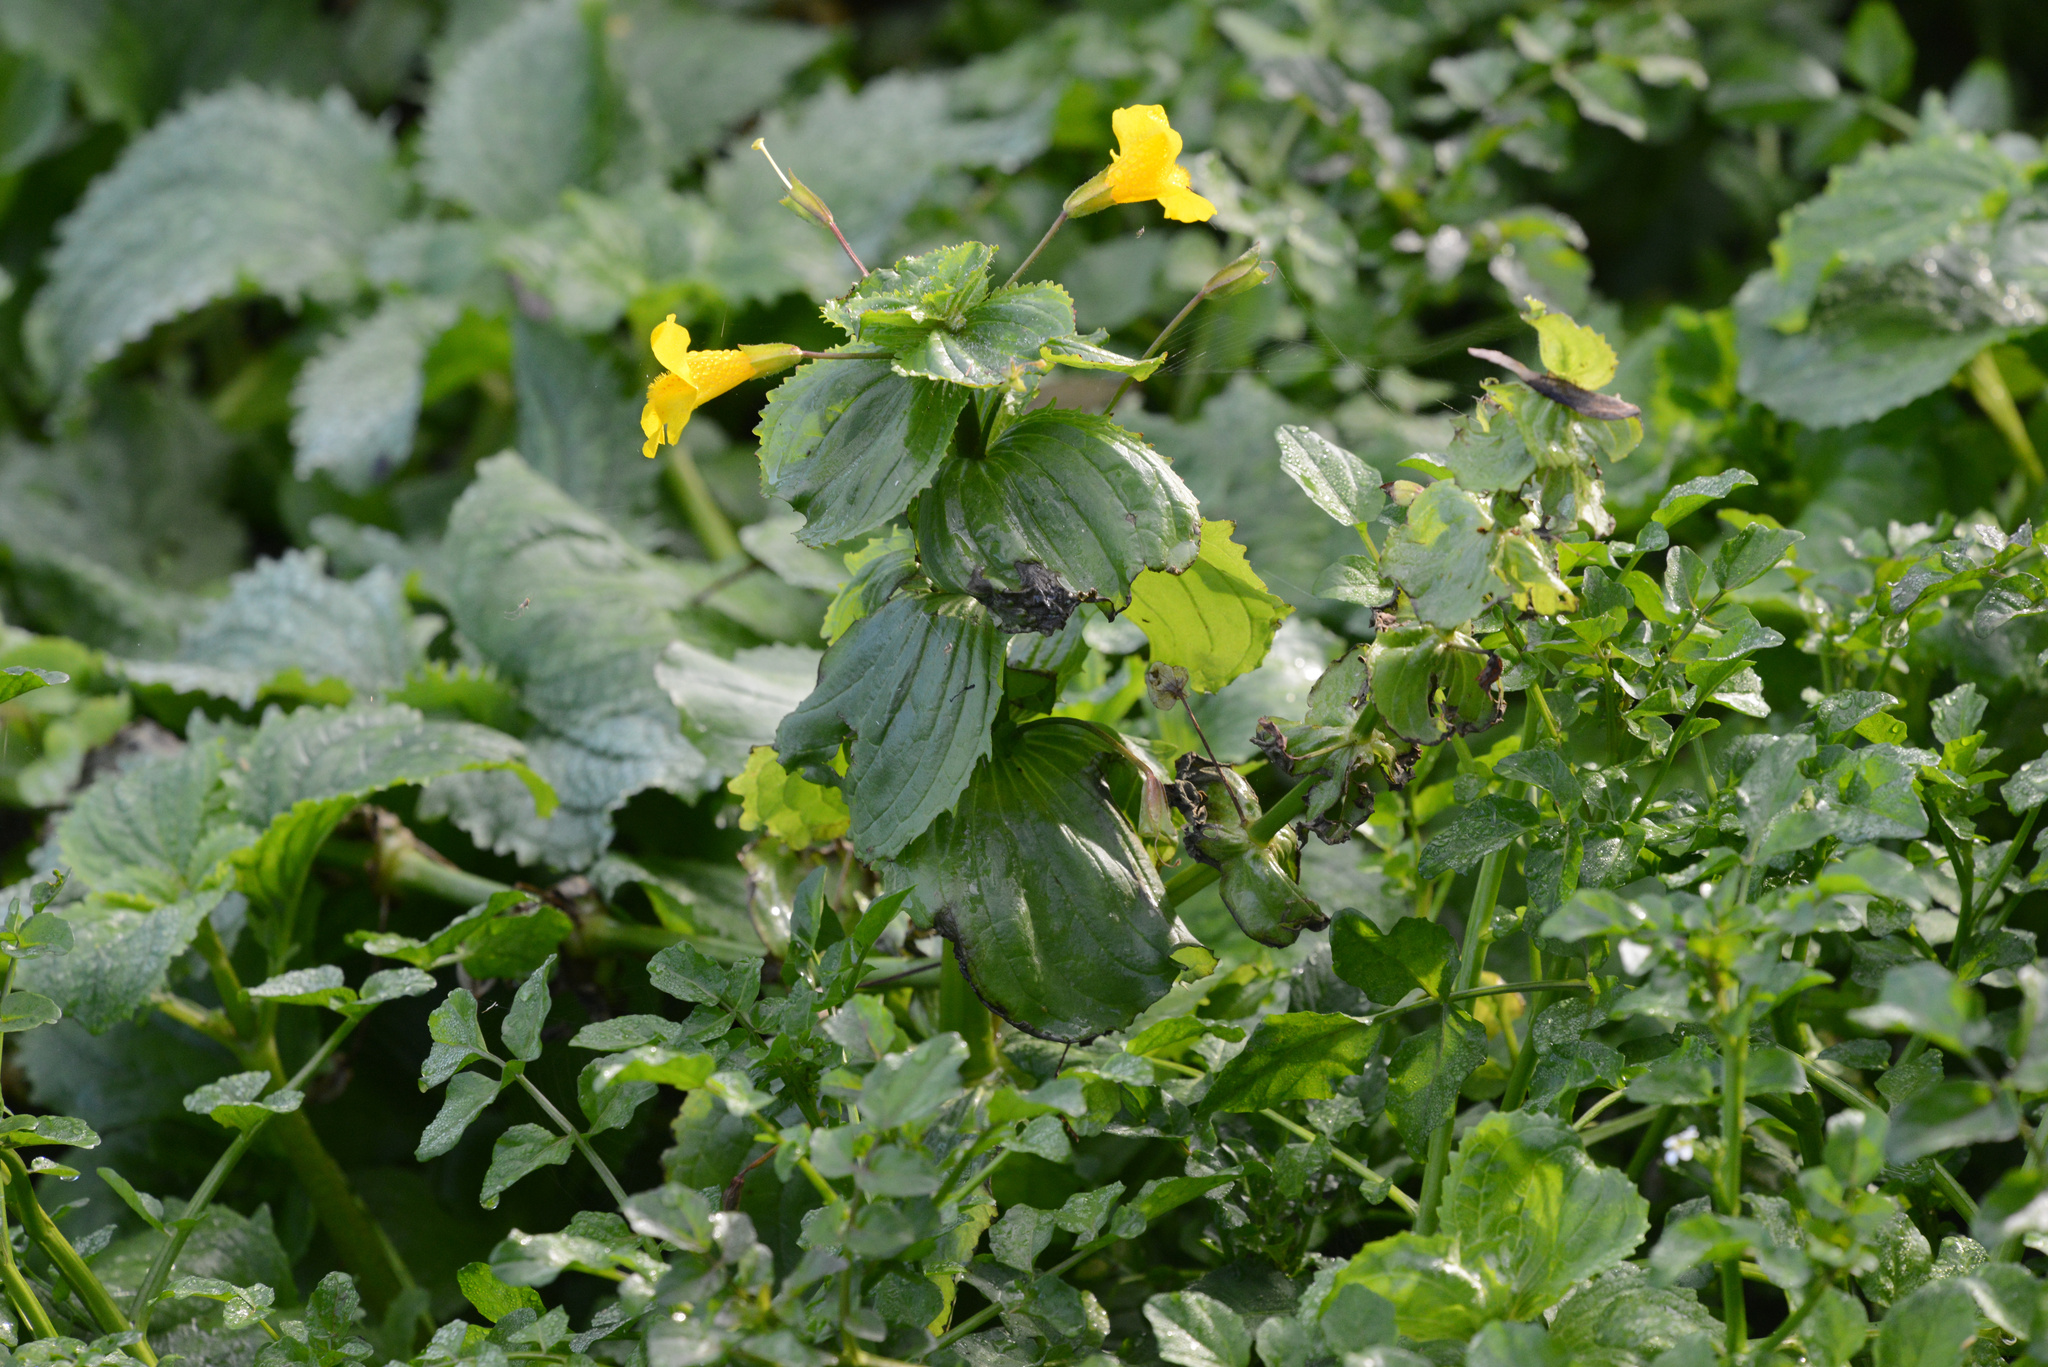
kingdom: Plantae
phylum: Tracheophyta
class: Magnoliopsida
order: Lamiales
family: Phrymaceae
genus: Erythranthe
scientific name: Erythranthe guttata
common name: Monkeyflower
